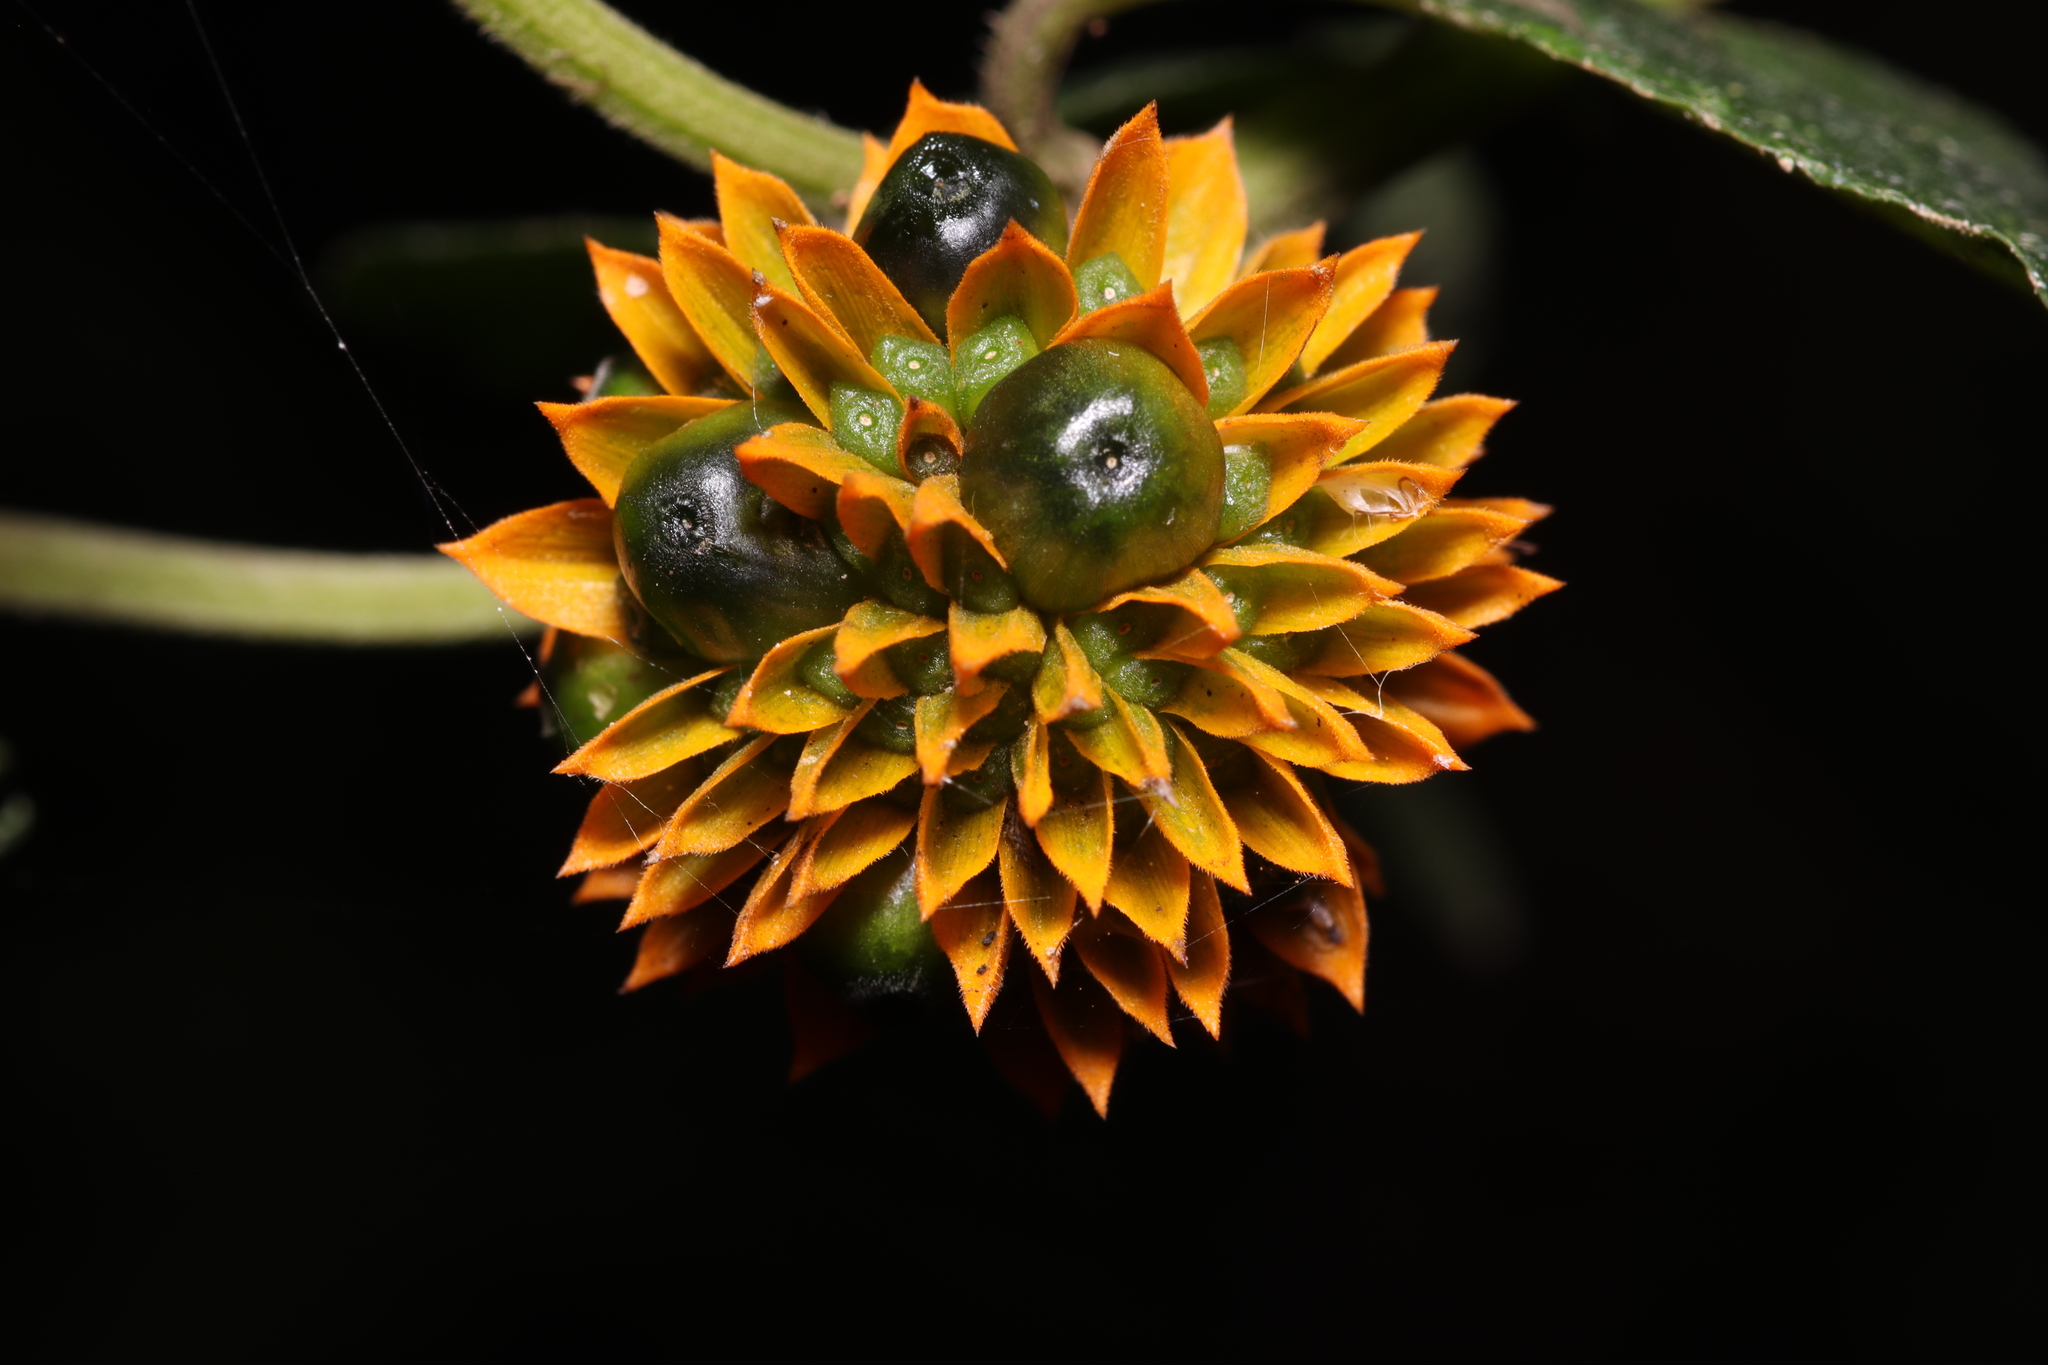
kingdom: Plantae
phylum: Tracheophyta
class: Magnoliopsida
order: Asterales
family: Asteraceae
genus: Tilesia
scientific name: Tilesia baccata
